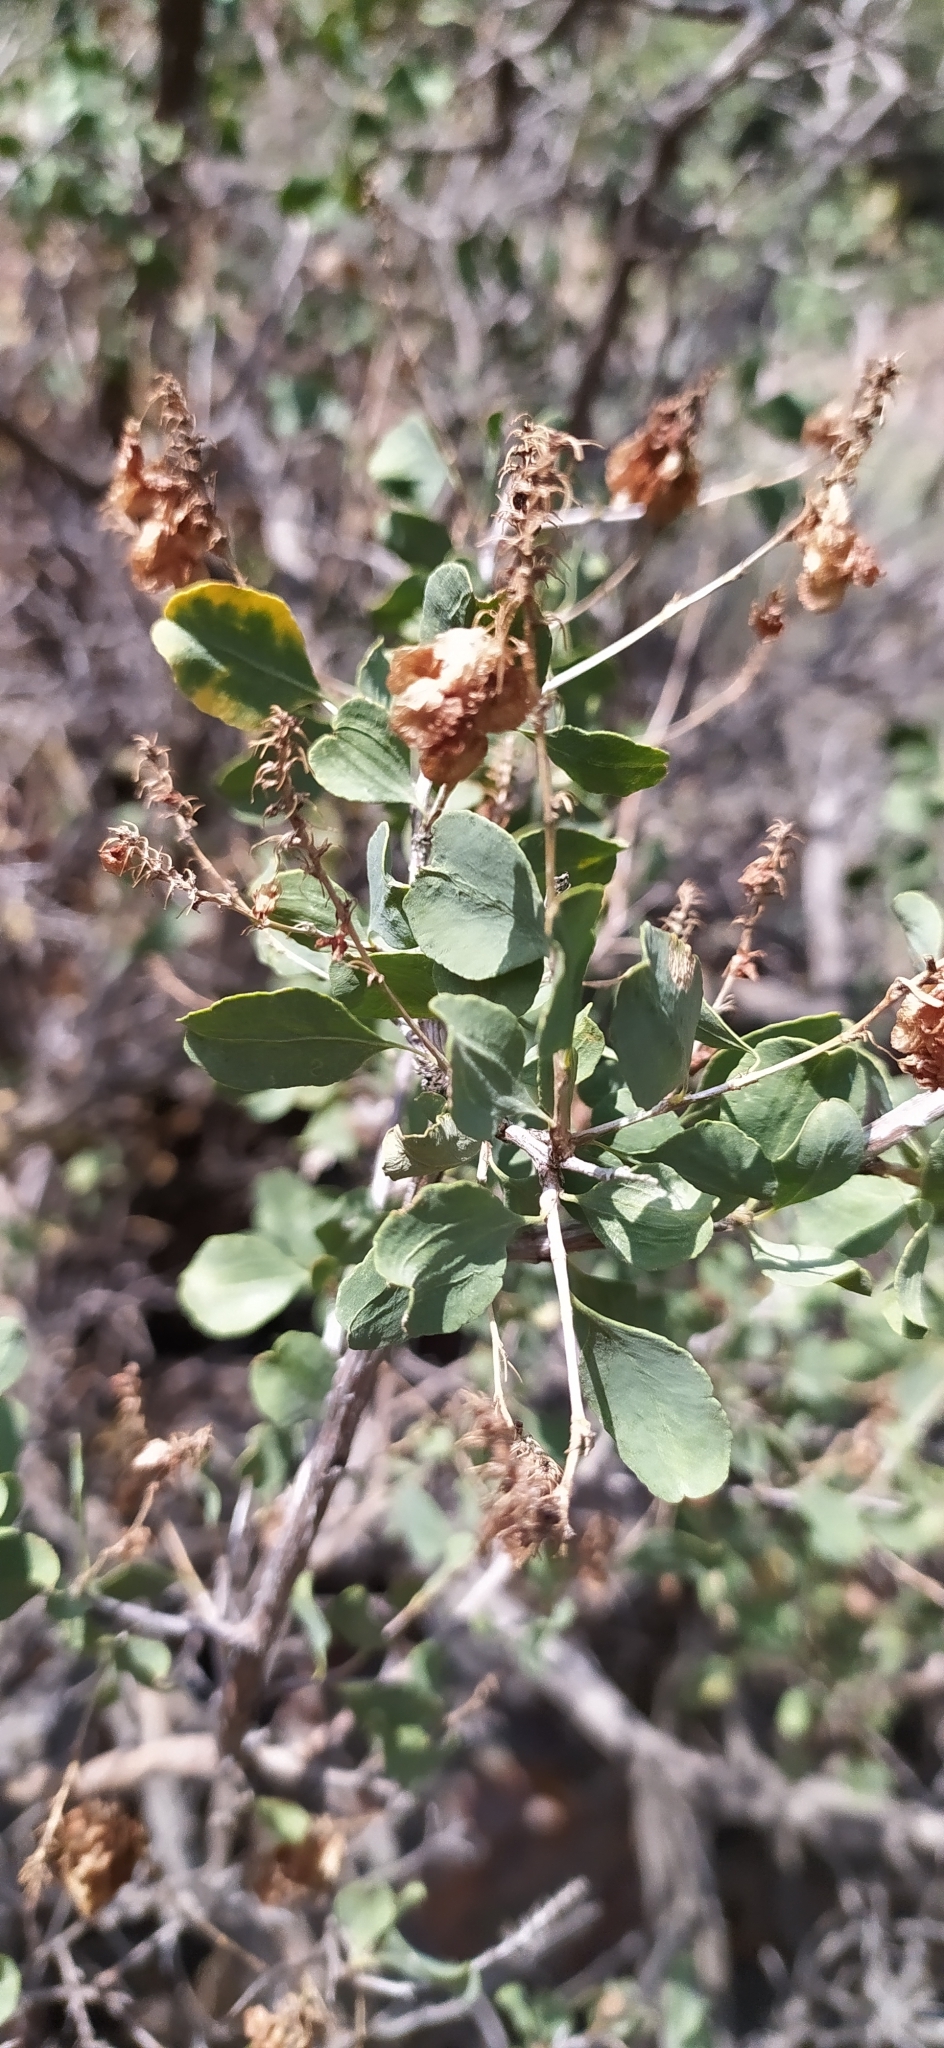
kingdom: Plantae
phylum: Tracheophyta
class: Magnoliopsida
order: Caryophyllales
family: Polygonaceae
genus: Atraphaxis
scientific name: Atraphaxis pyrifolia
